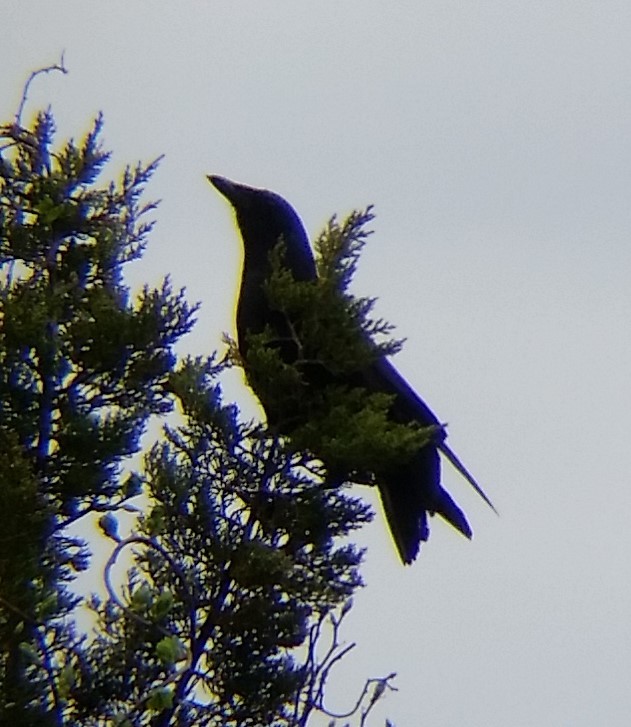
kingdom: Animalia
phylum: Chordata
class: Aves
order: Passeriformes
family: Corvidae
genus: Corvus
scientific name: Corvus brachyrhynchos
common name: American crow
